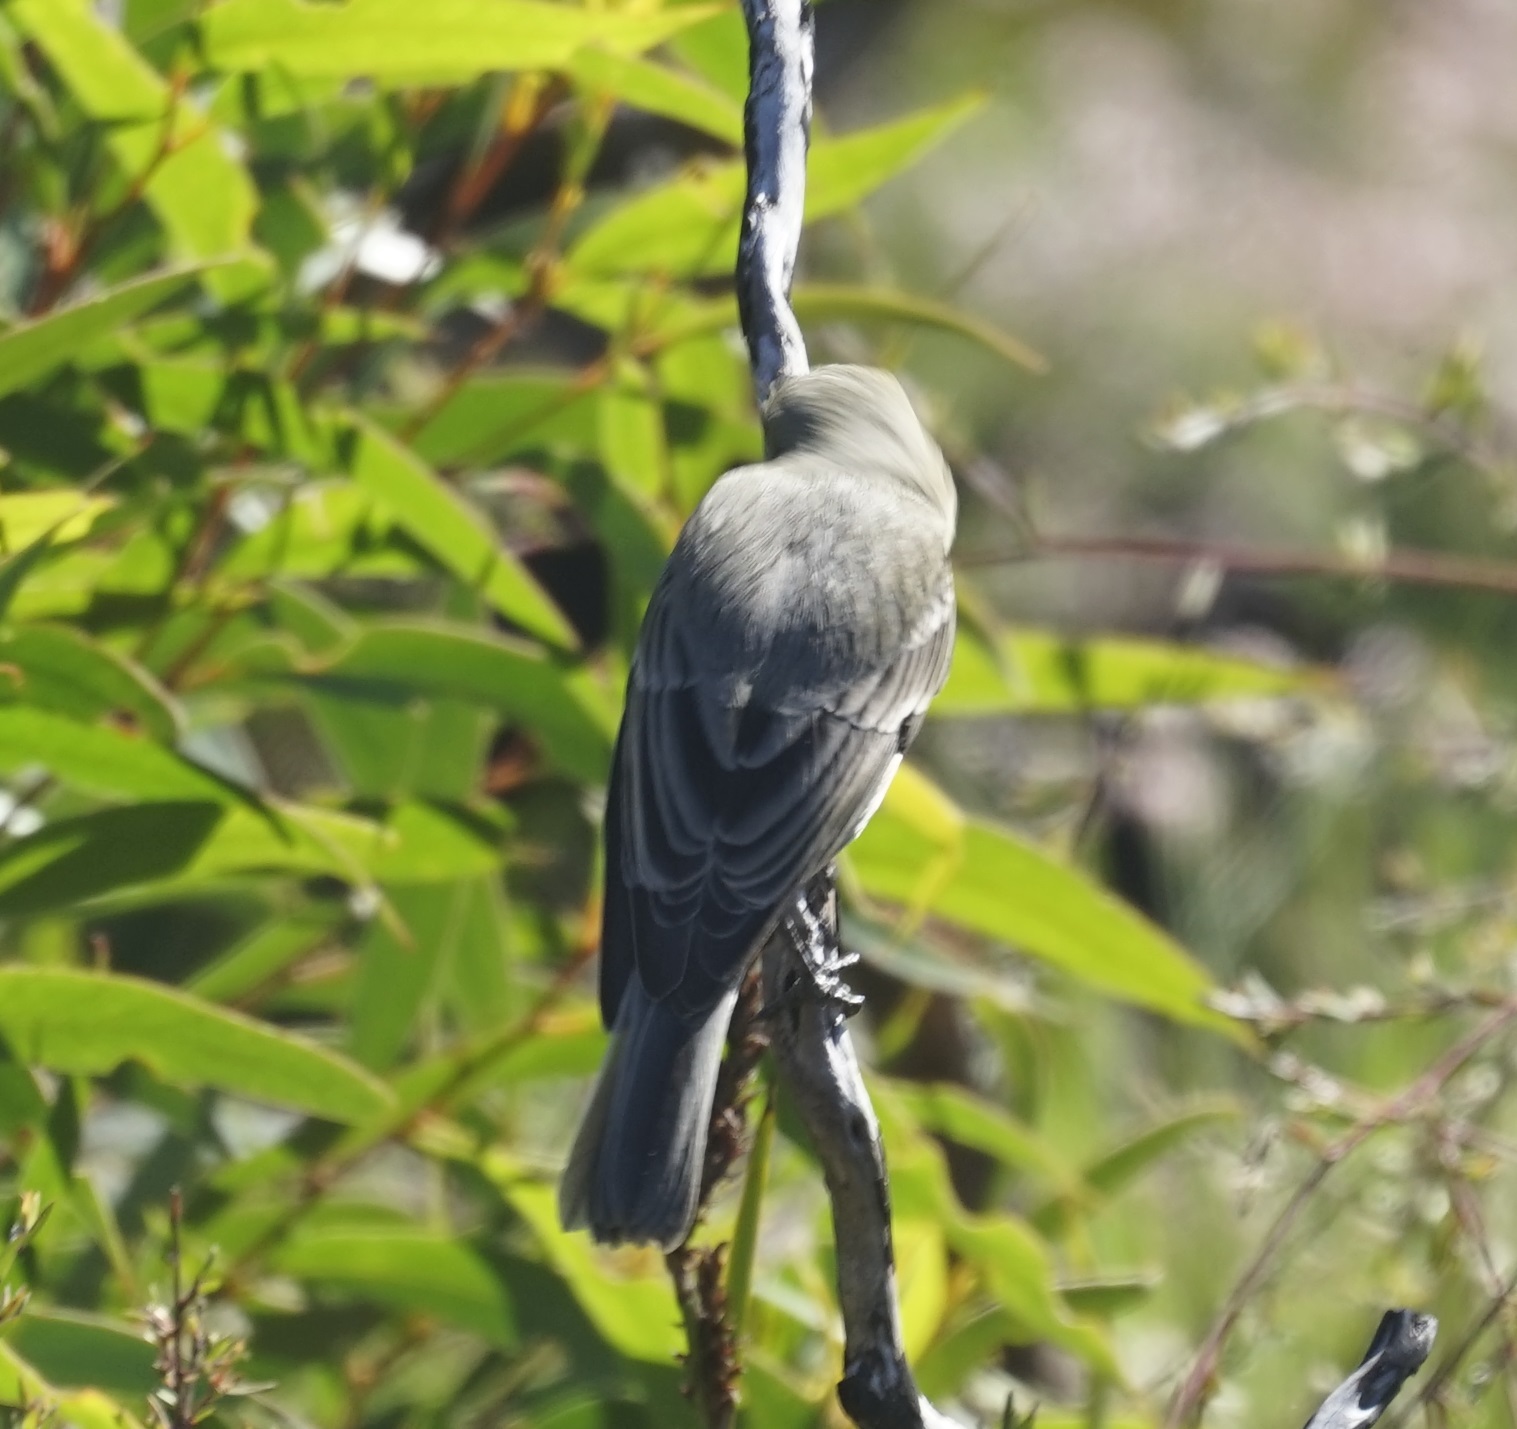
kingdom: Animalia
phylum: Chordata
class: Aves
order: Passeriformes
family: Pachycephalidae
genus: Pachycephala
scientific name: Pachycephala rufiventris
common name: Rufous whistler
